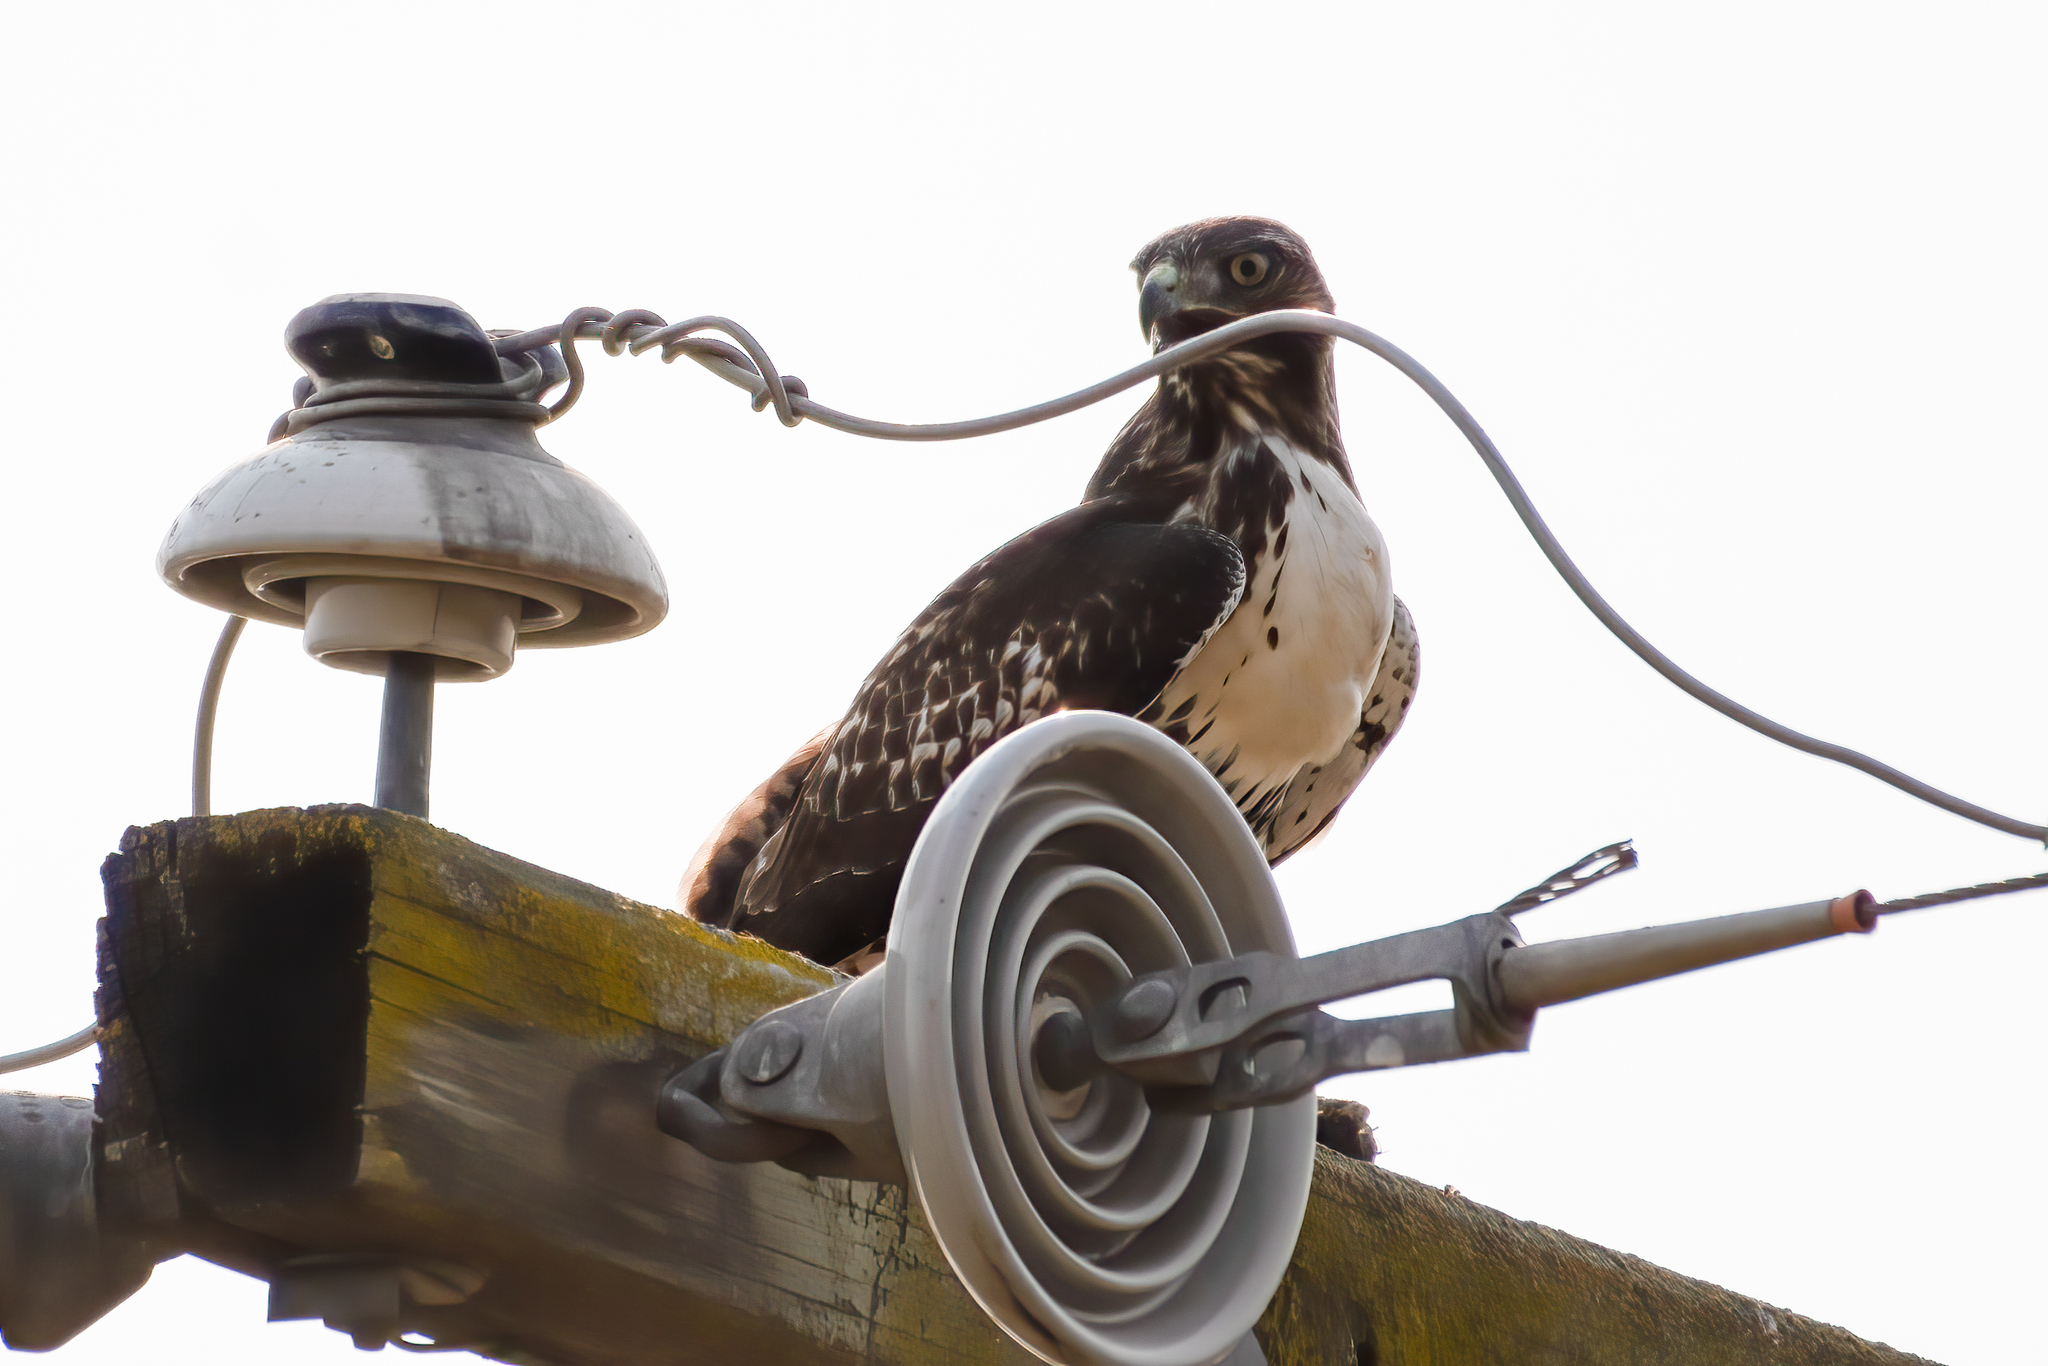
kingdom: Animalia
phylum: Chordata
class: Aves
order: Accipitriformes
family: Accipitridae
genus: Buteo
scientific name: Buteo jamaicensis
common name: Red-tailed hawk
